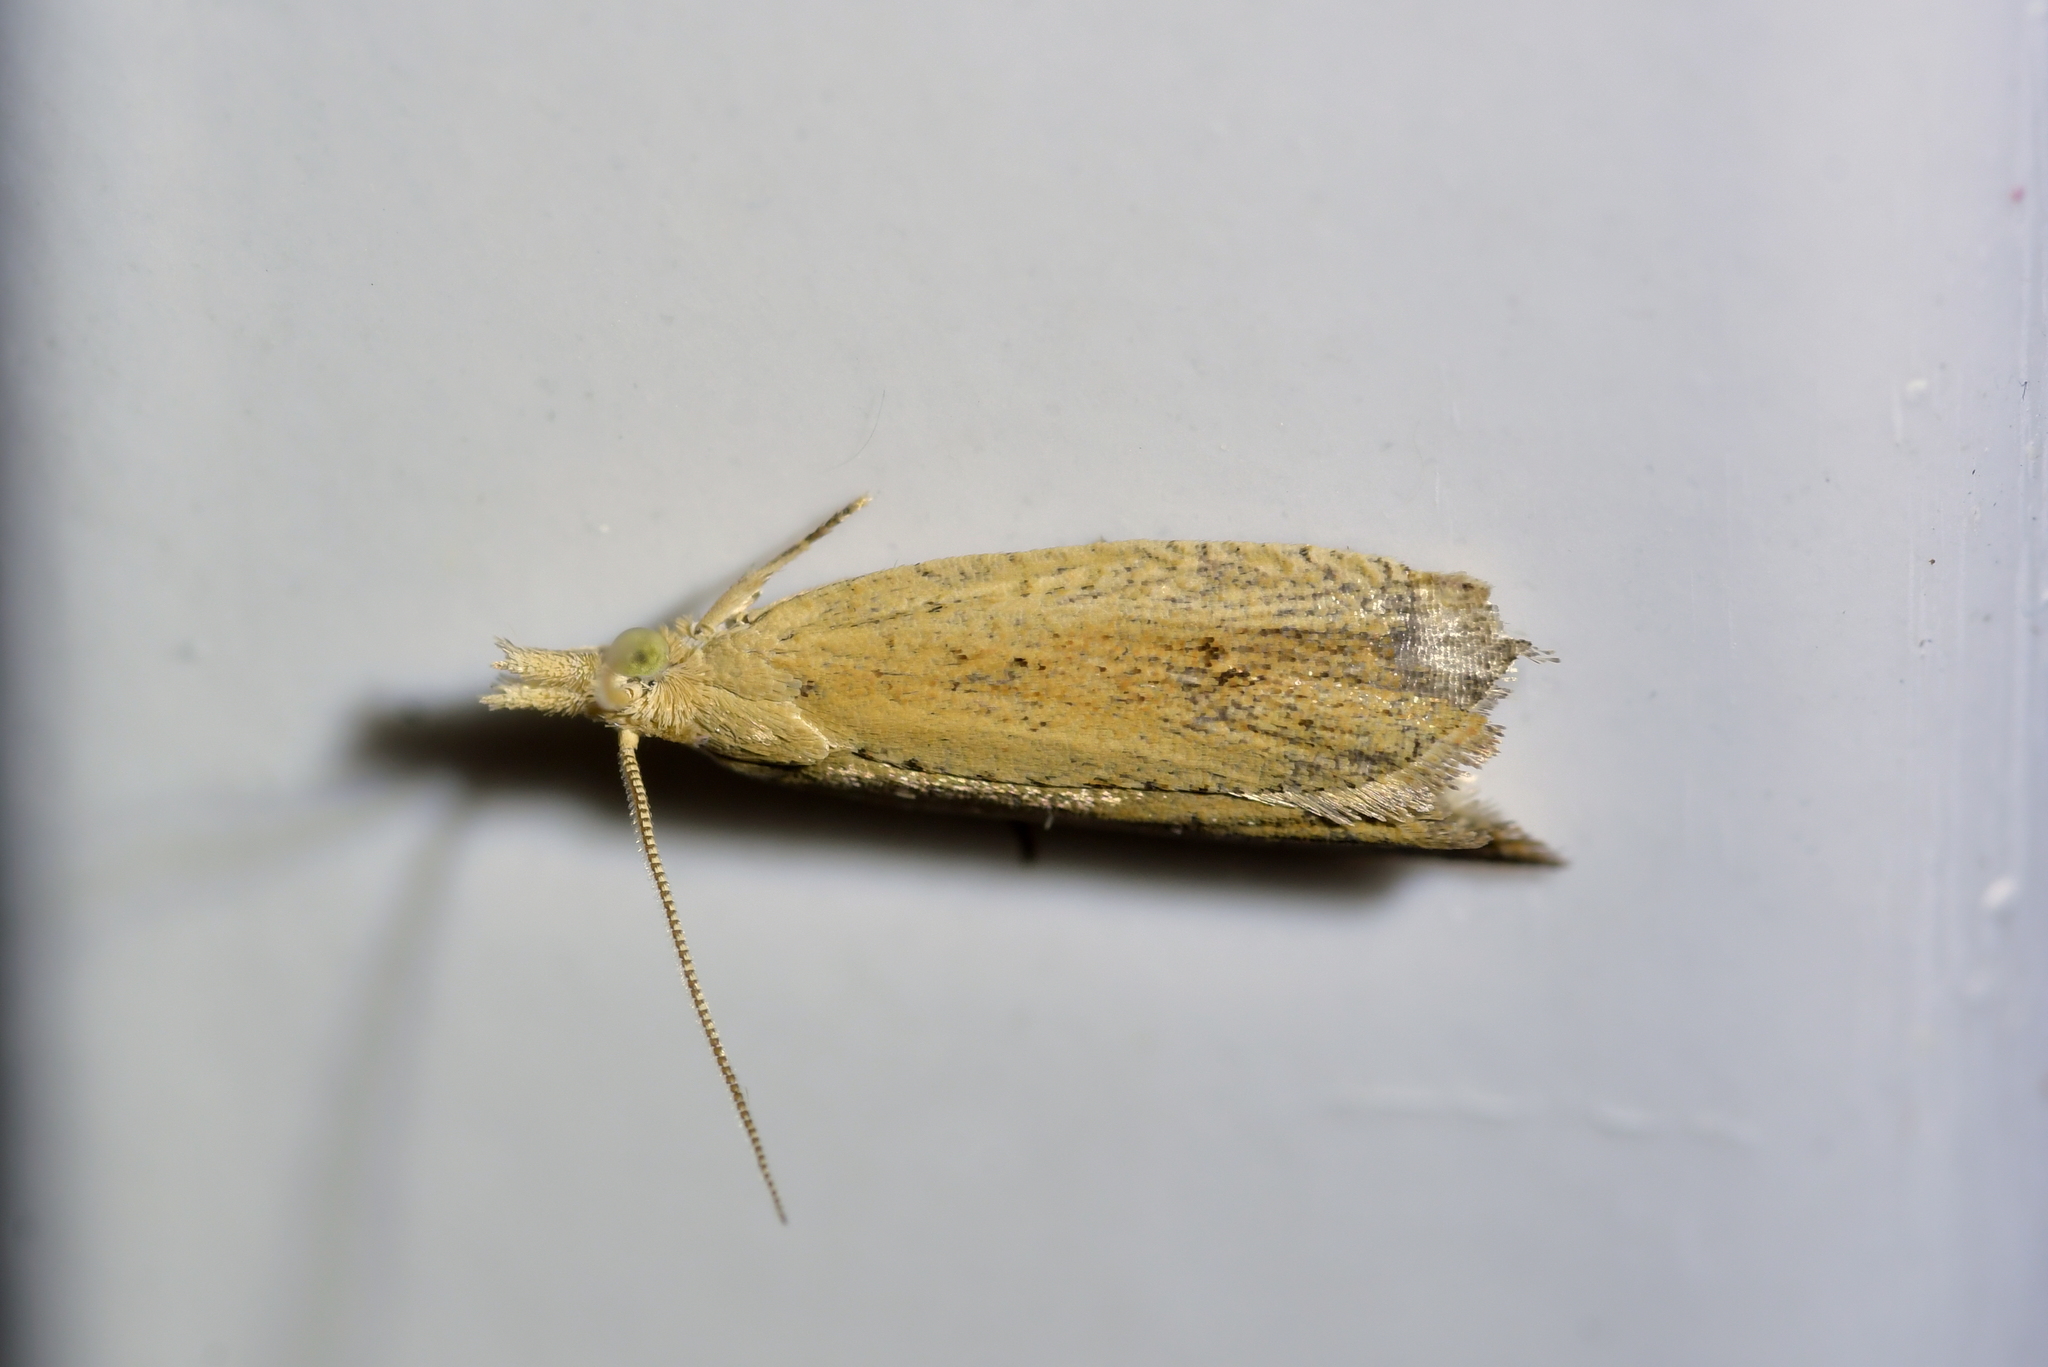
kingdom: Animalia
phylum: Arthropoda
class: Insecta
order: Lepidoptera
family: Tortricidae
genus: Bactra
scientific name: Bactra noteraula
